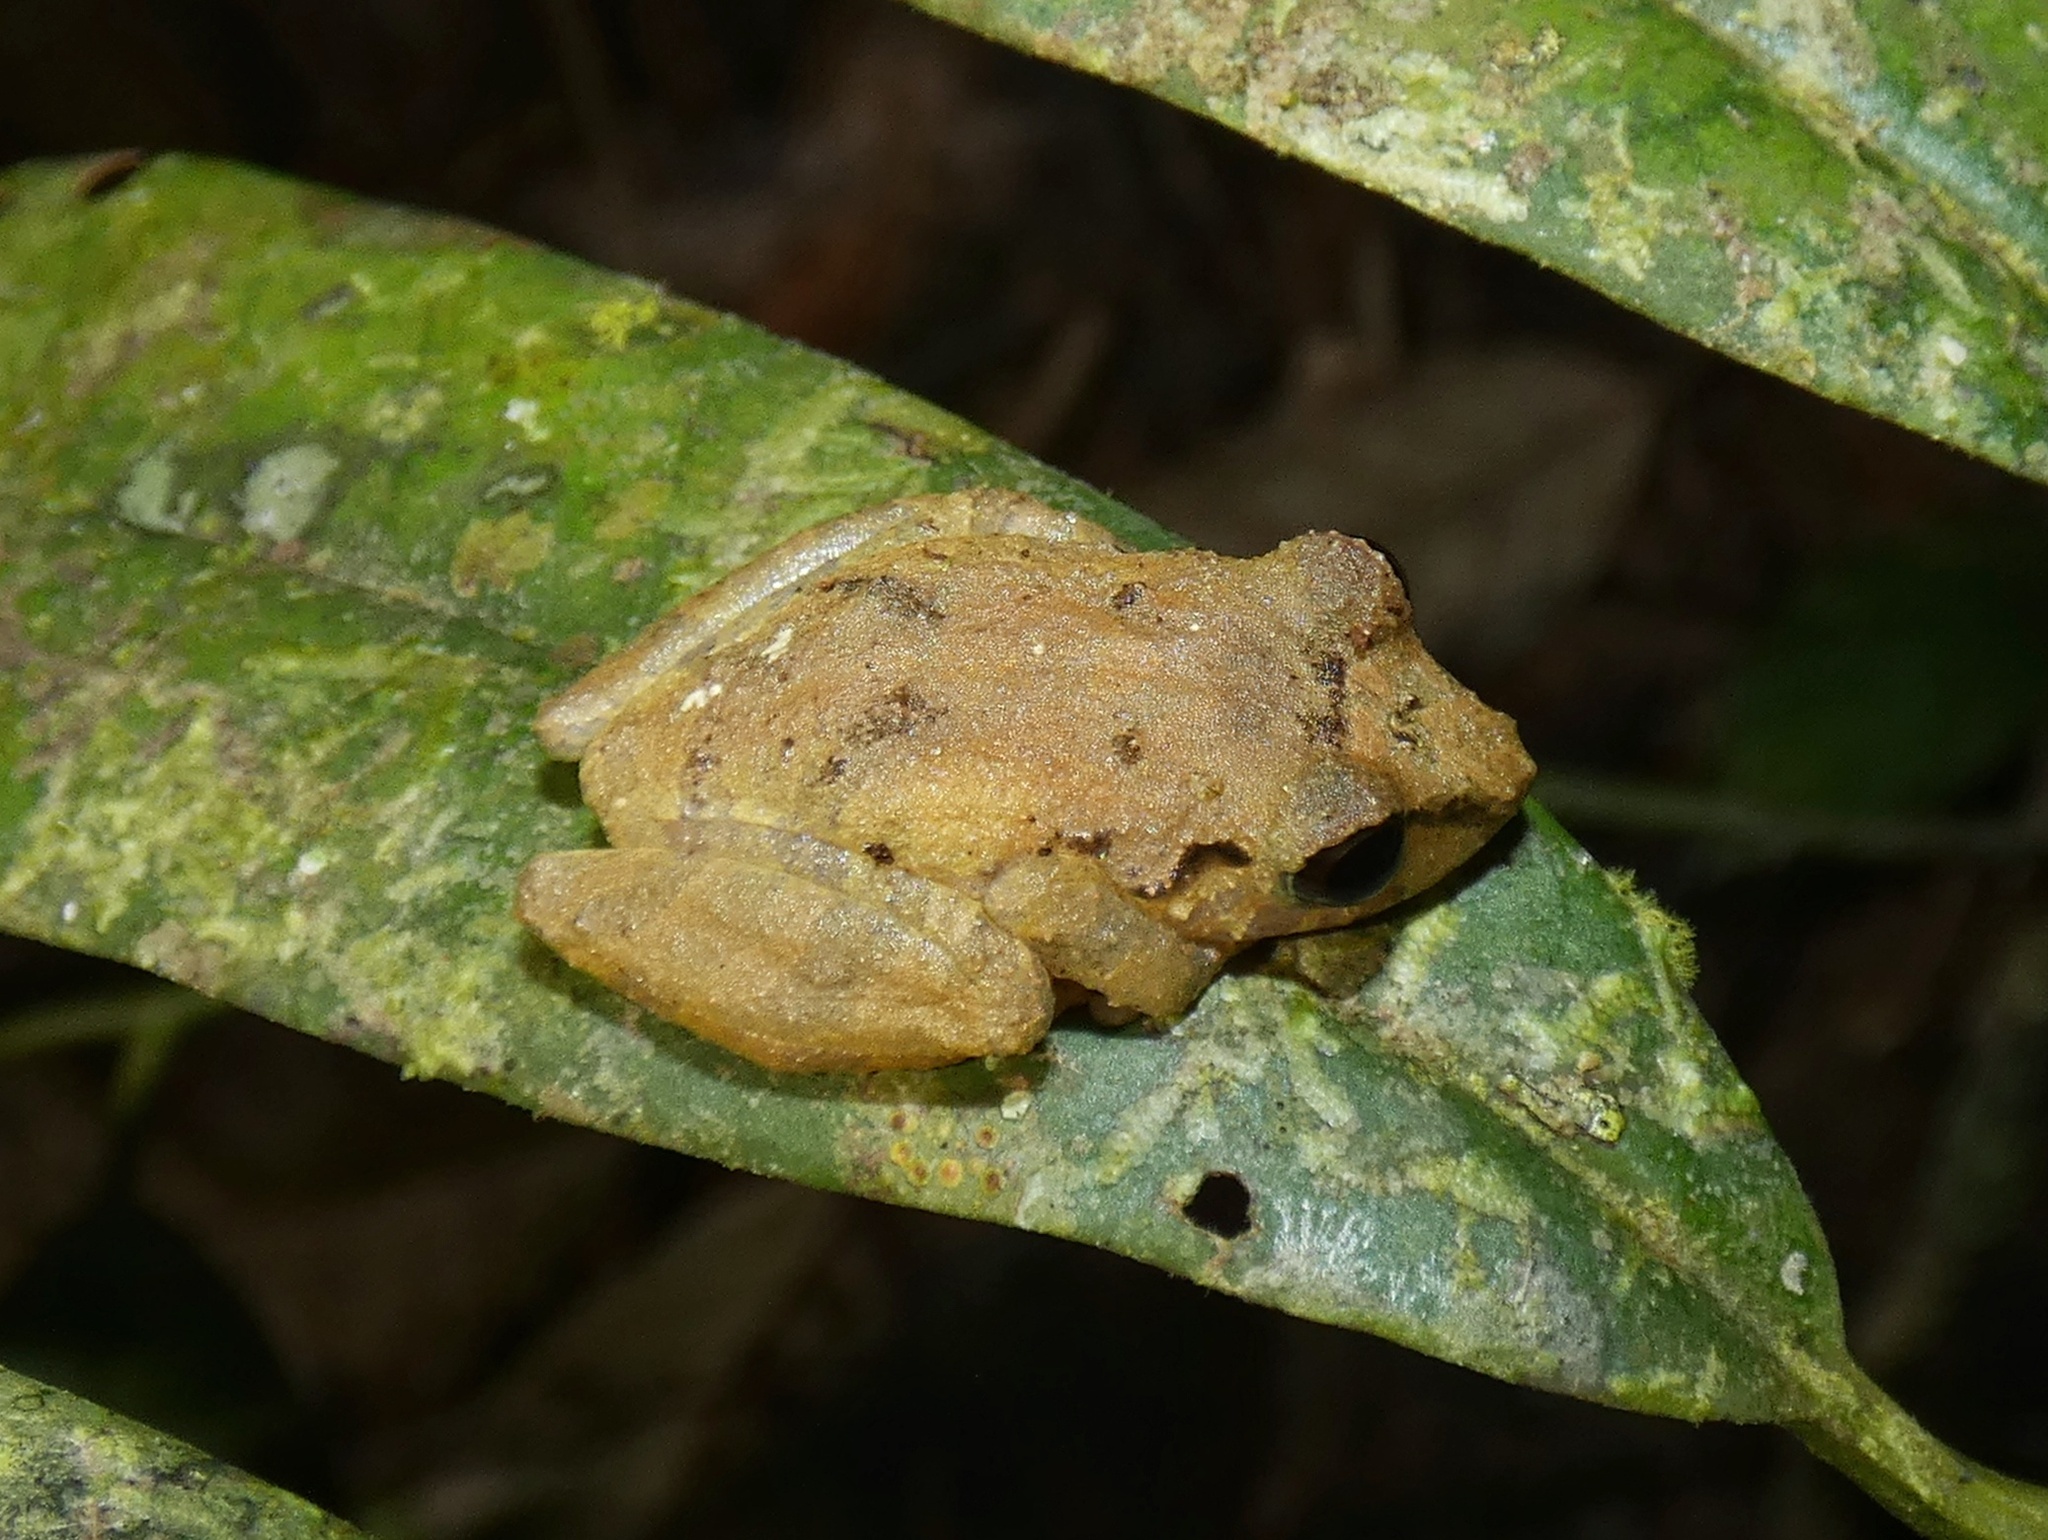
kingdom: Animalia
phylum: Chordata
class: Amphibia
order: Anura
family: Craugastoridae
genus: Pristimantis
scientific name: Pristimantis ridens
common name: Rio san juan robber frog
